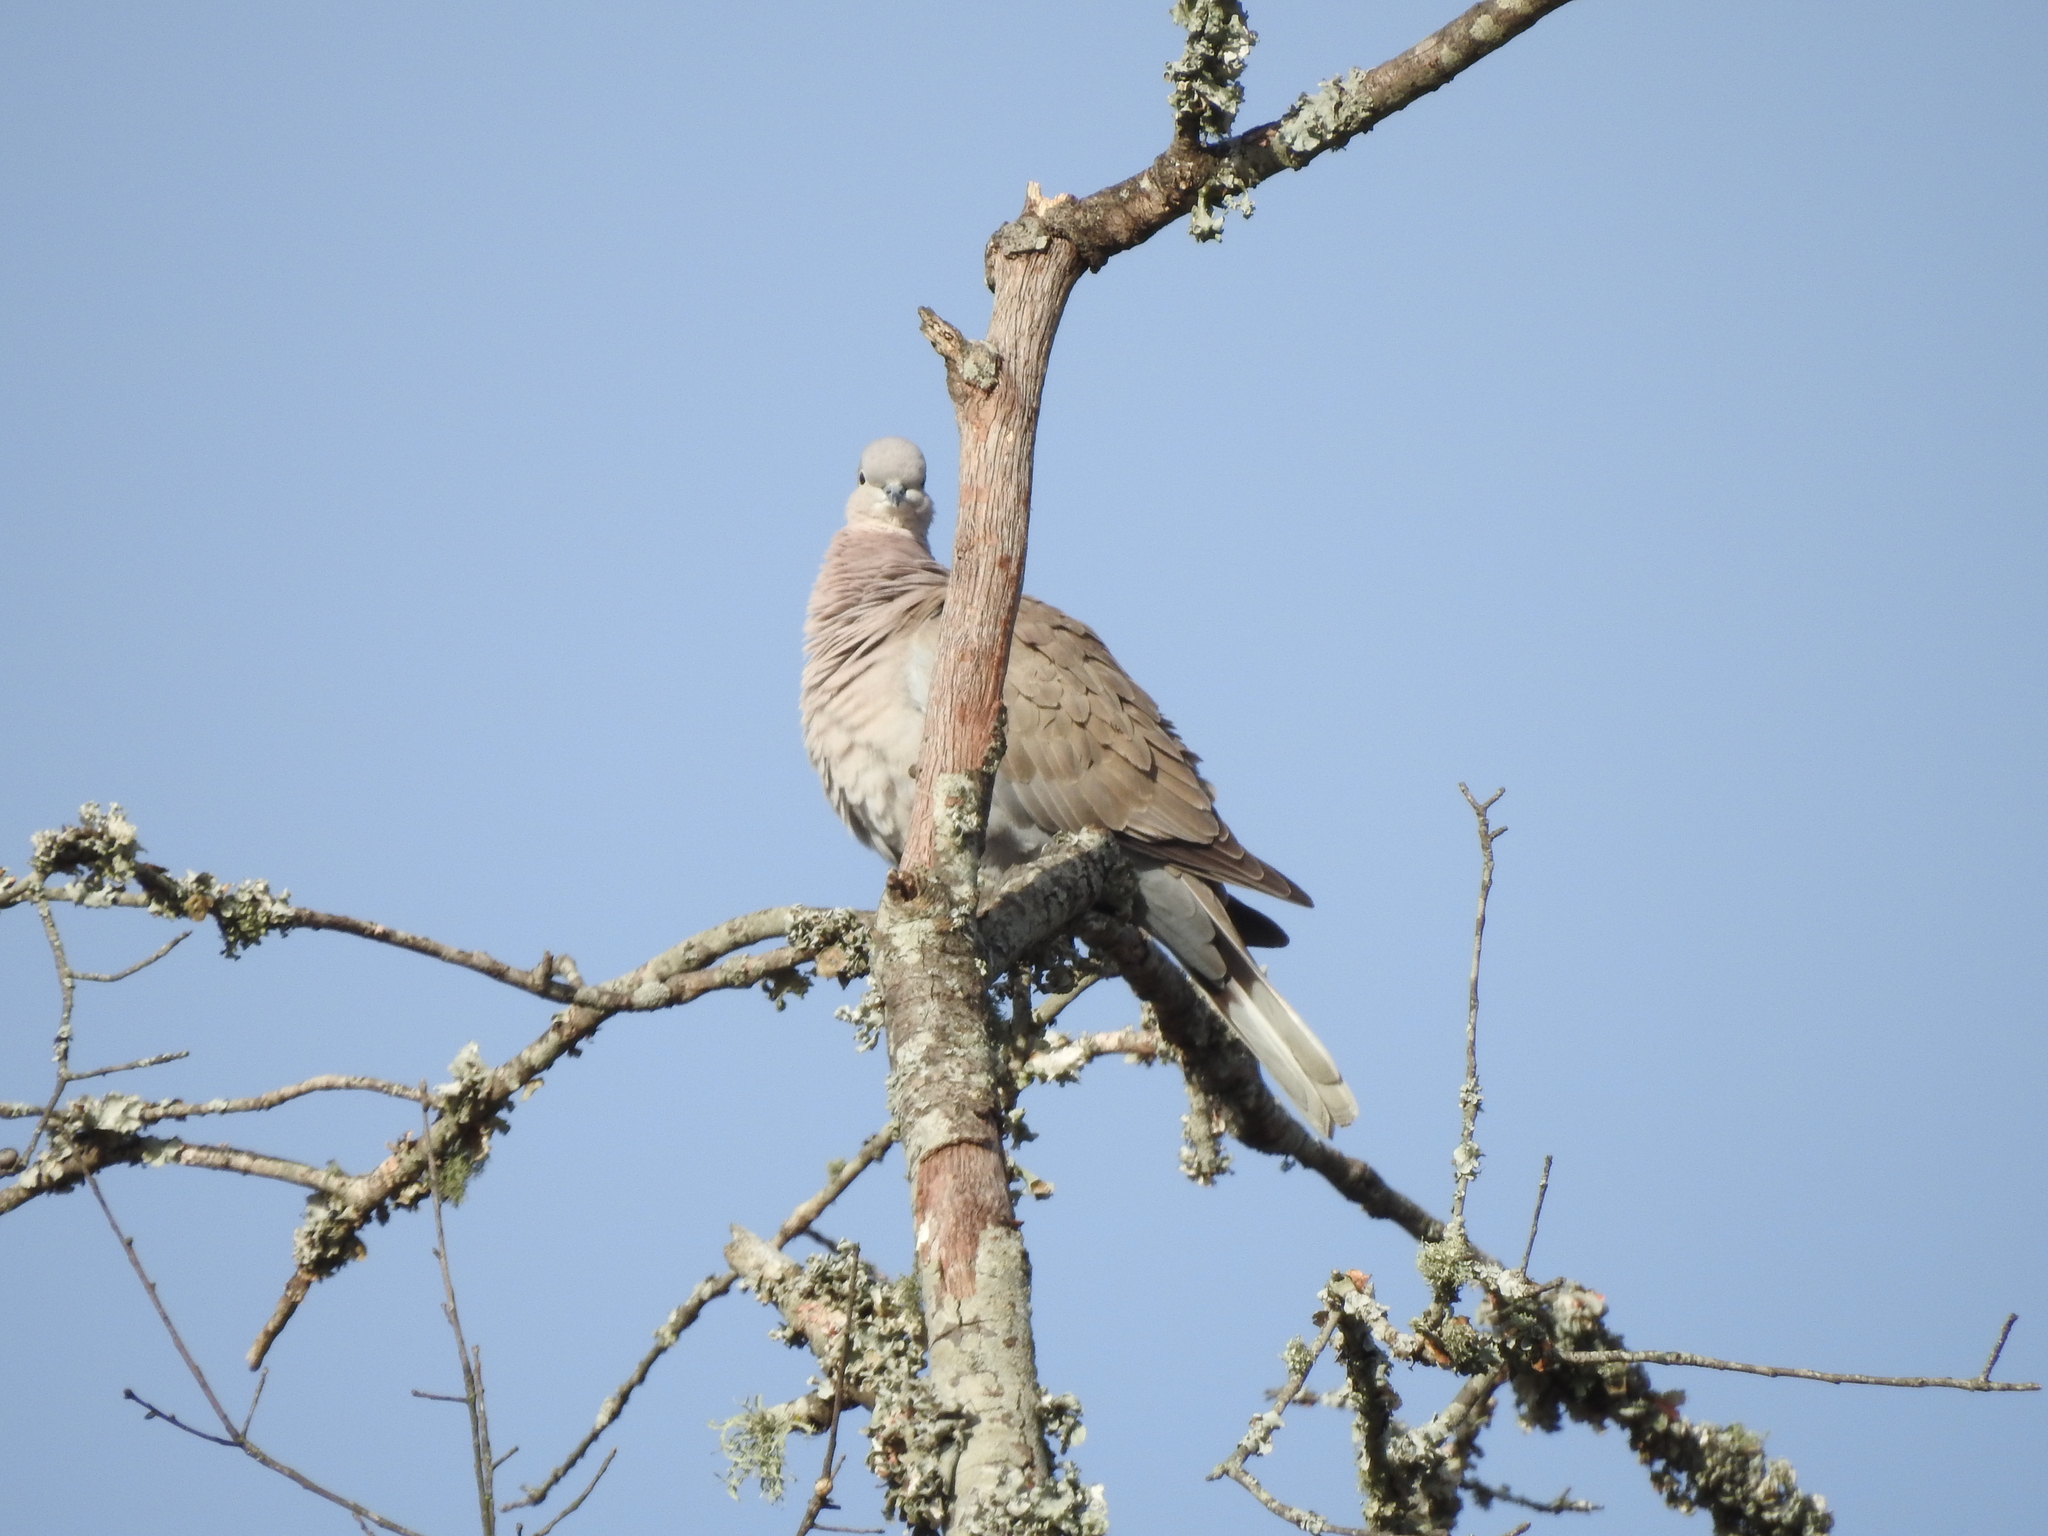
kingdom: Animalia
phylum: Chordata
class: Aves
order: Columbiformes
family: Columbidae
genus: Streptopelia
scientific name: Streptopelia decaocto
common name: Eurasian collared dove
